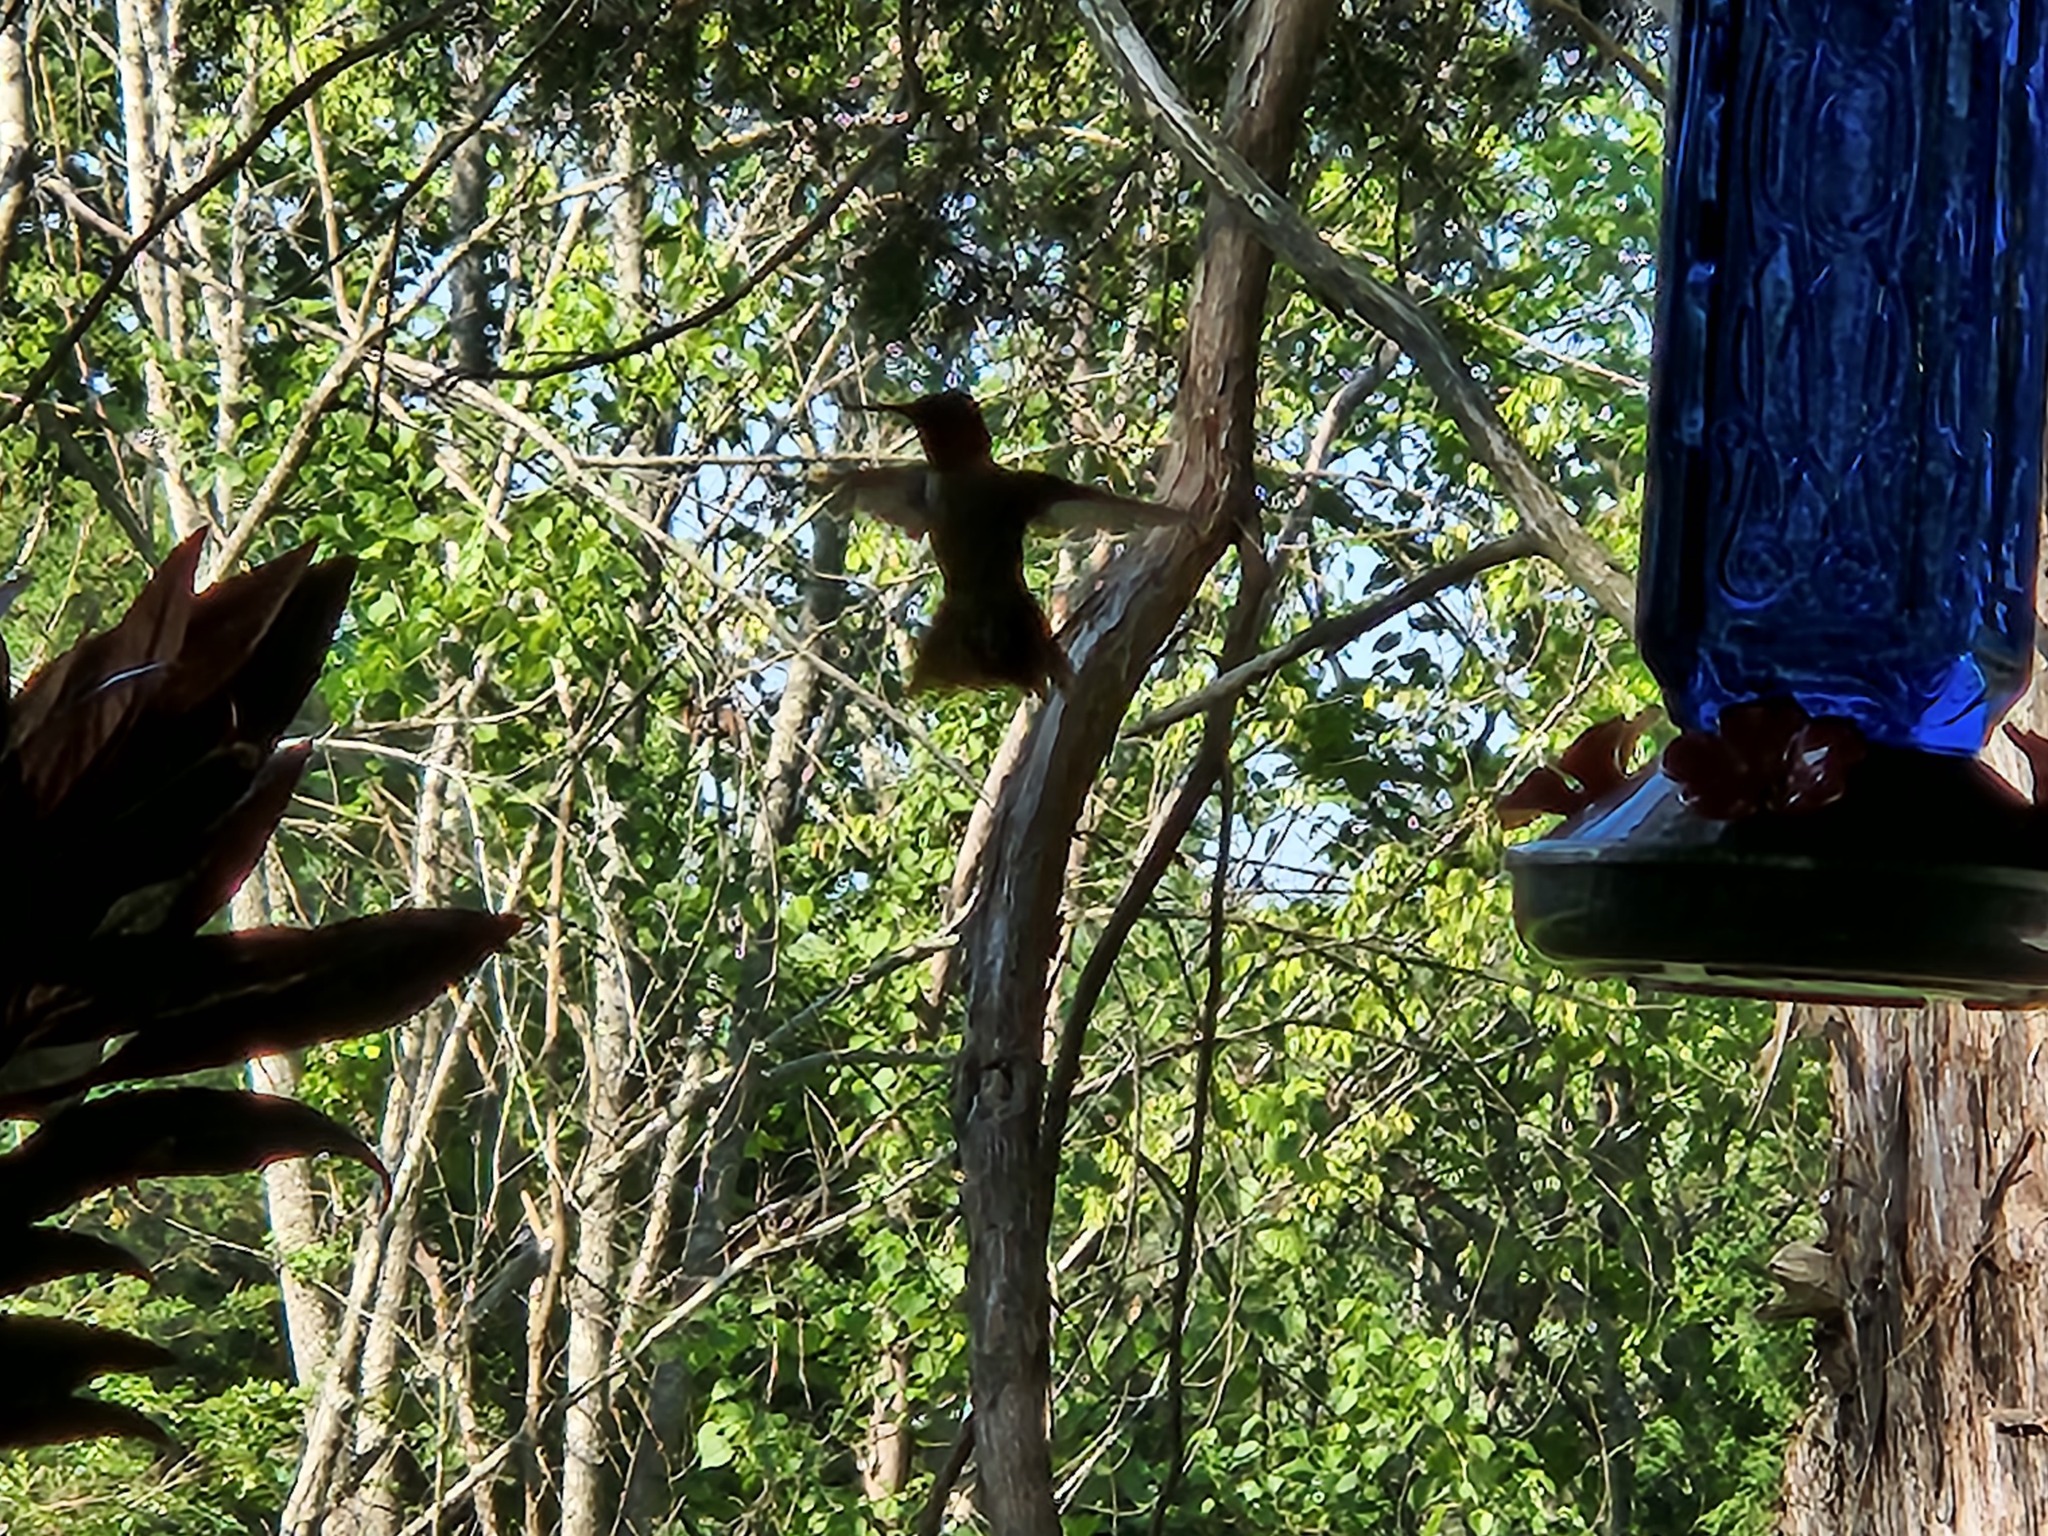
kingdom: Animalia
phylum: Chordata
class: Aves
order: Apodiformes
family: Trochilidae
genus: Archilochus
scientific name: Archilochus colubris
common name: Ruby-throated hummingbird
